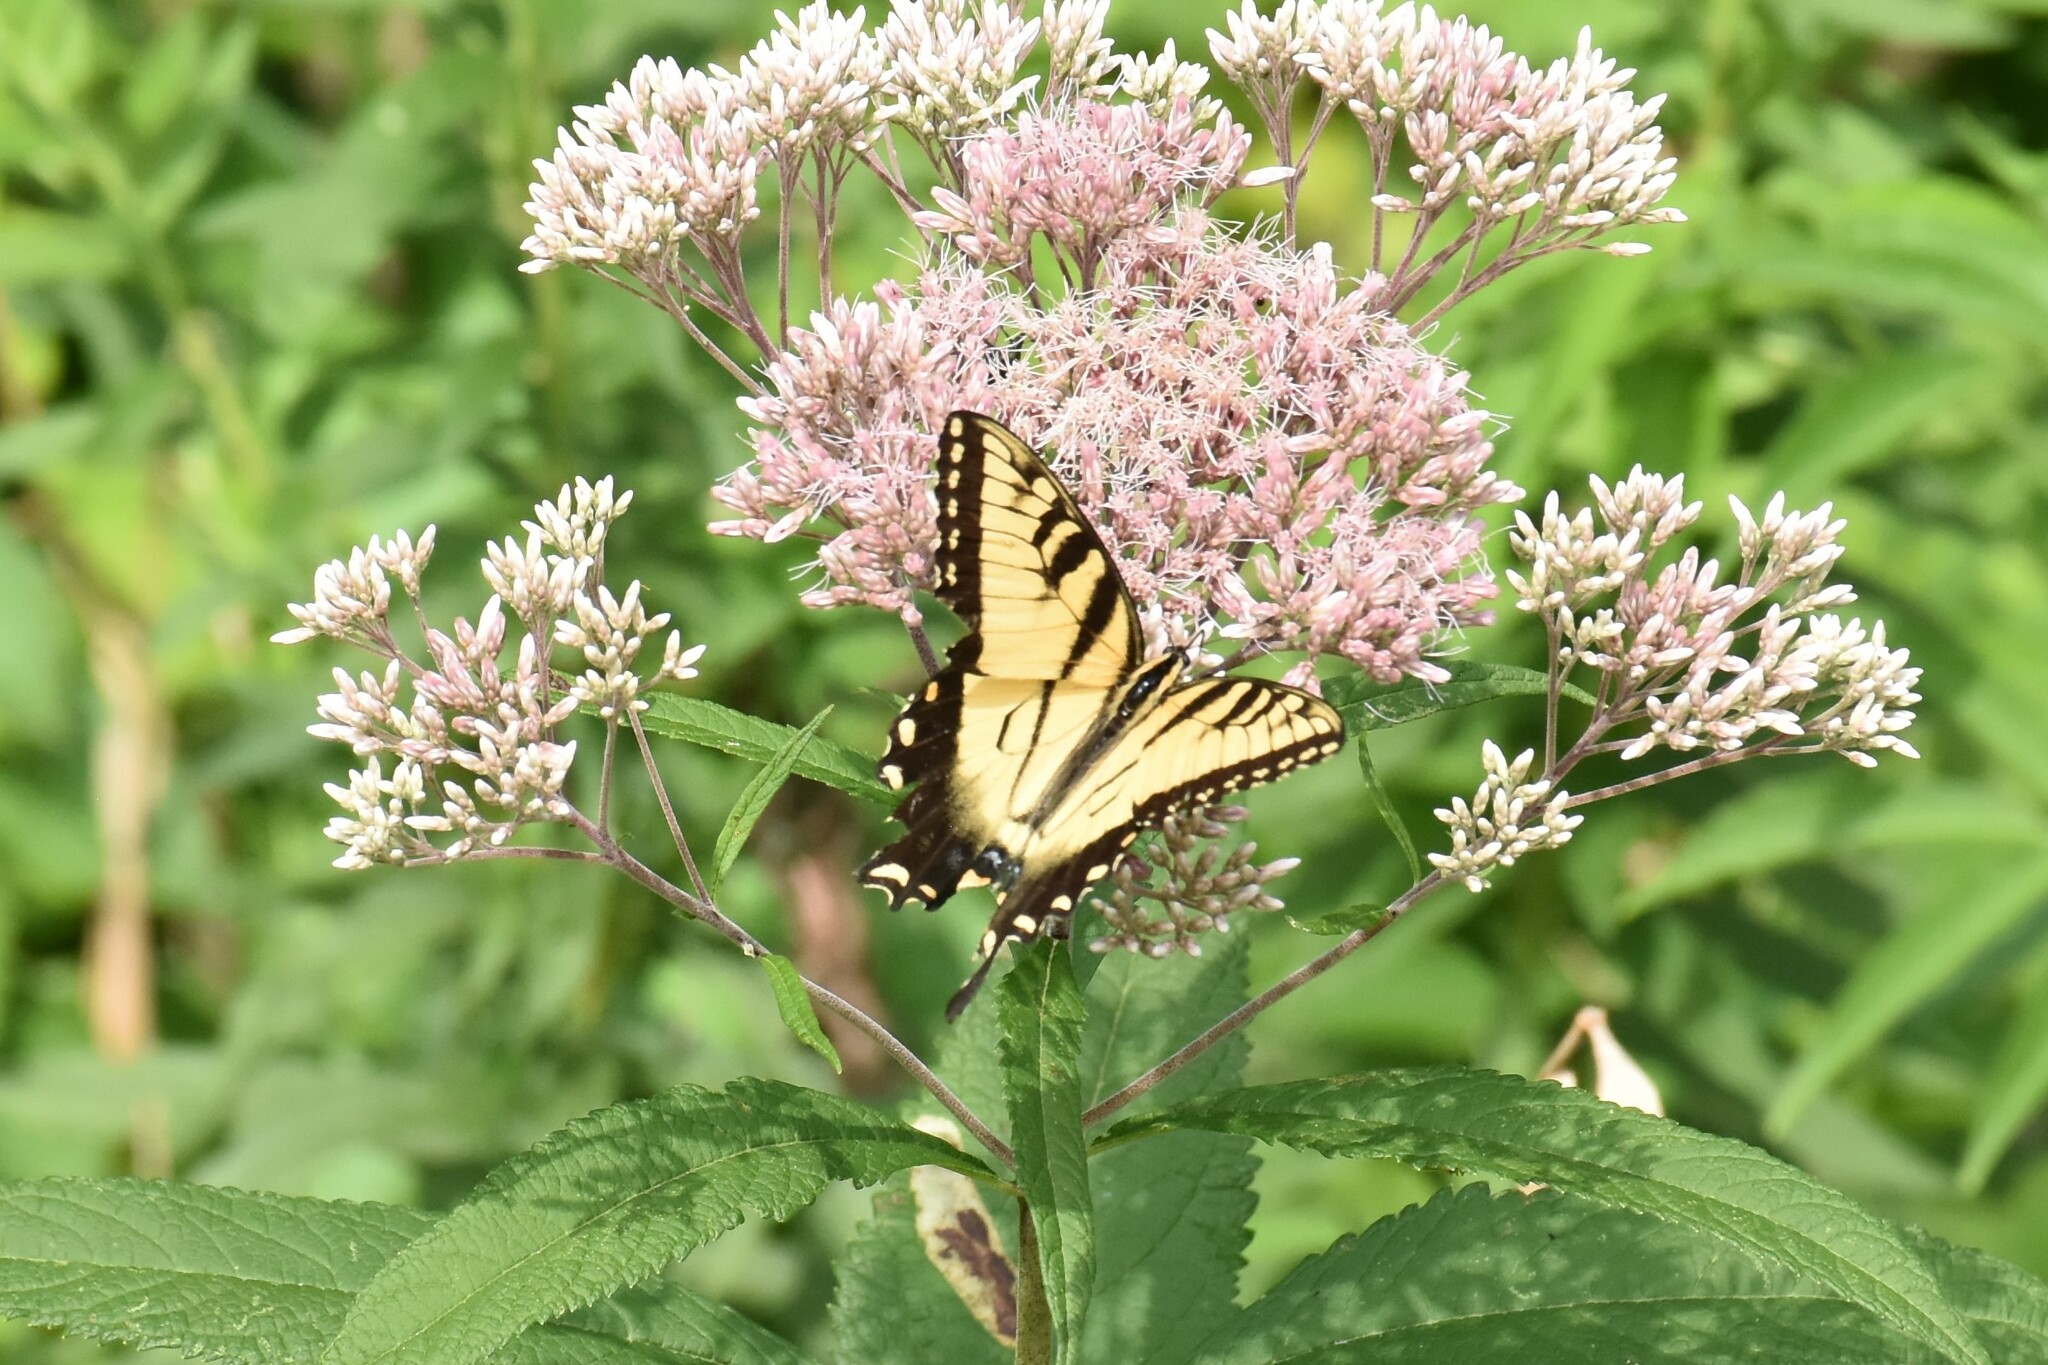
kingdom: Animalia
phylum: Arthropoda
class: Insecta
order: Lepidoptera
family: Papilionidae
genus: Papilio
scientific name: Papilio glaucus
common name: Tiger swallowtail
